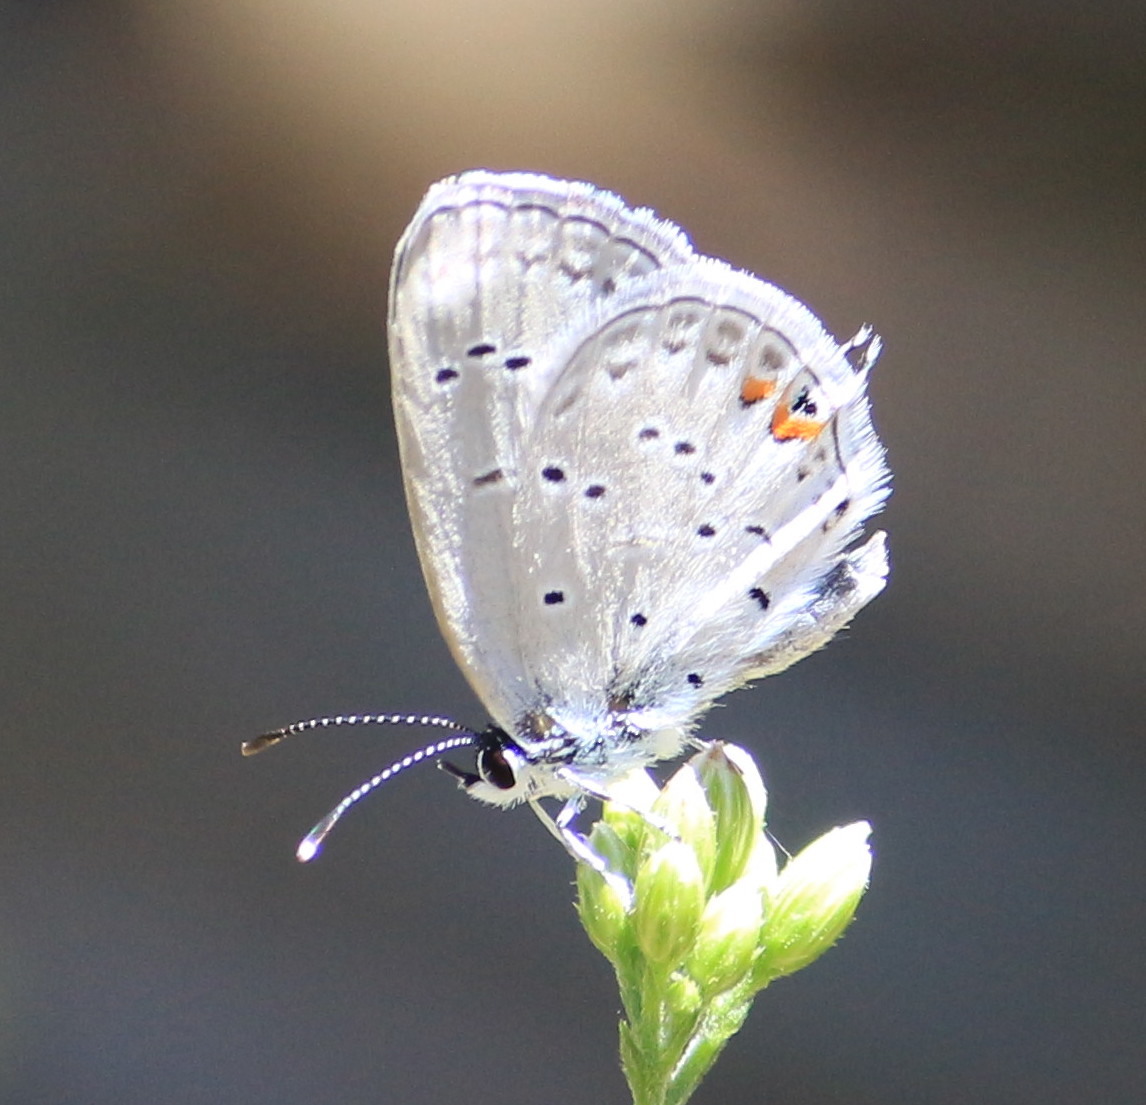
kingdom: Animalia
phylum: Arthropoda
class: Insecta
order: Lepidoptera
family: Lycaenidae
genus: Elkalyce
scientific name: Elkalyce comyntas
